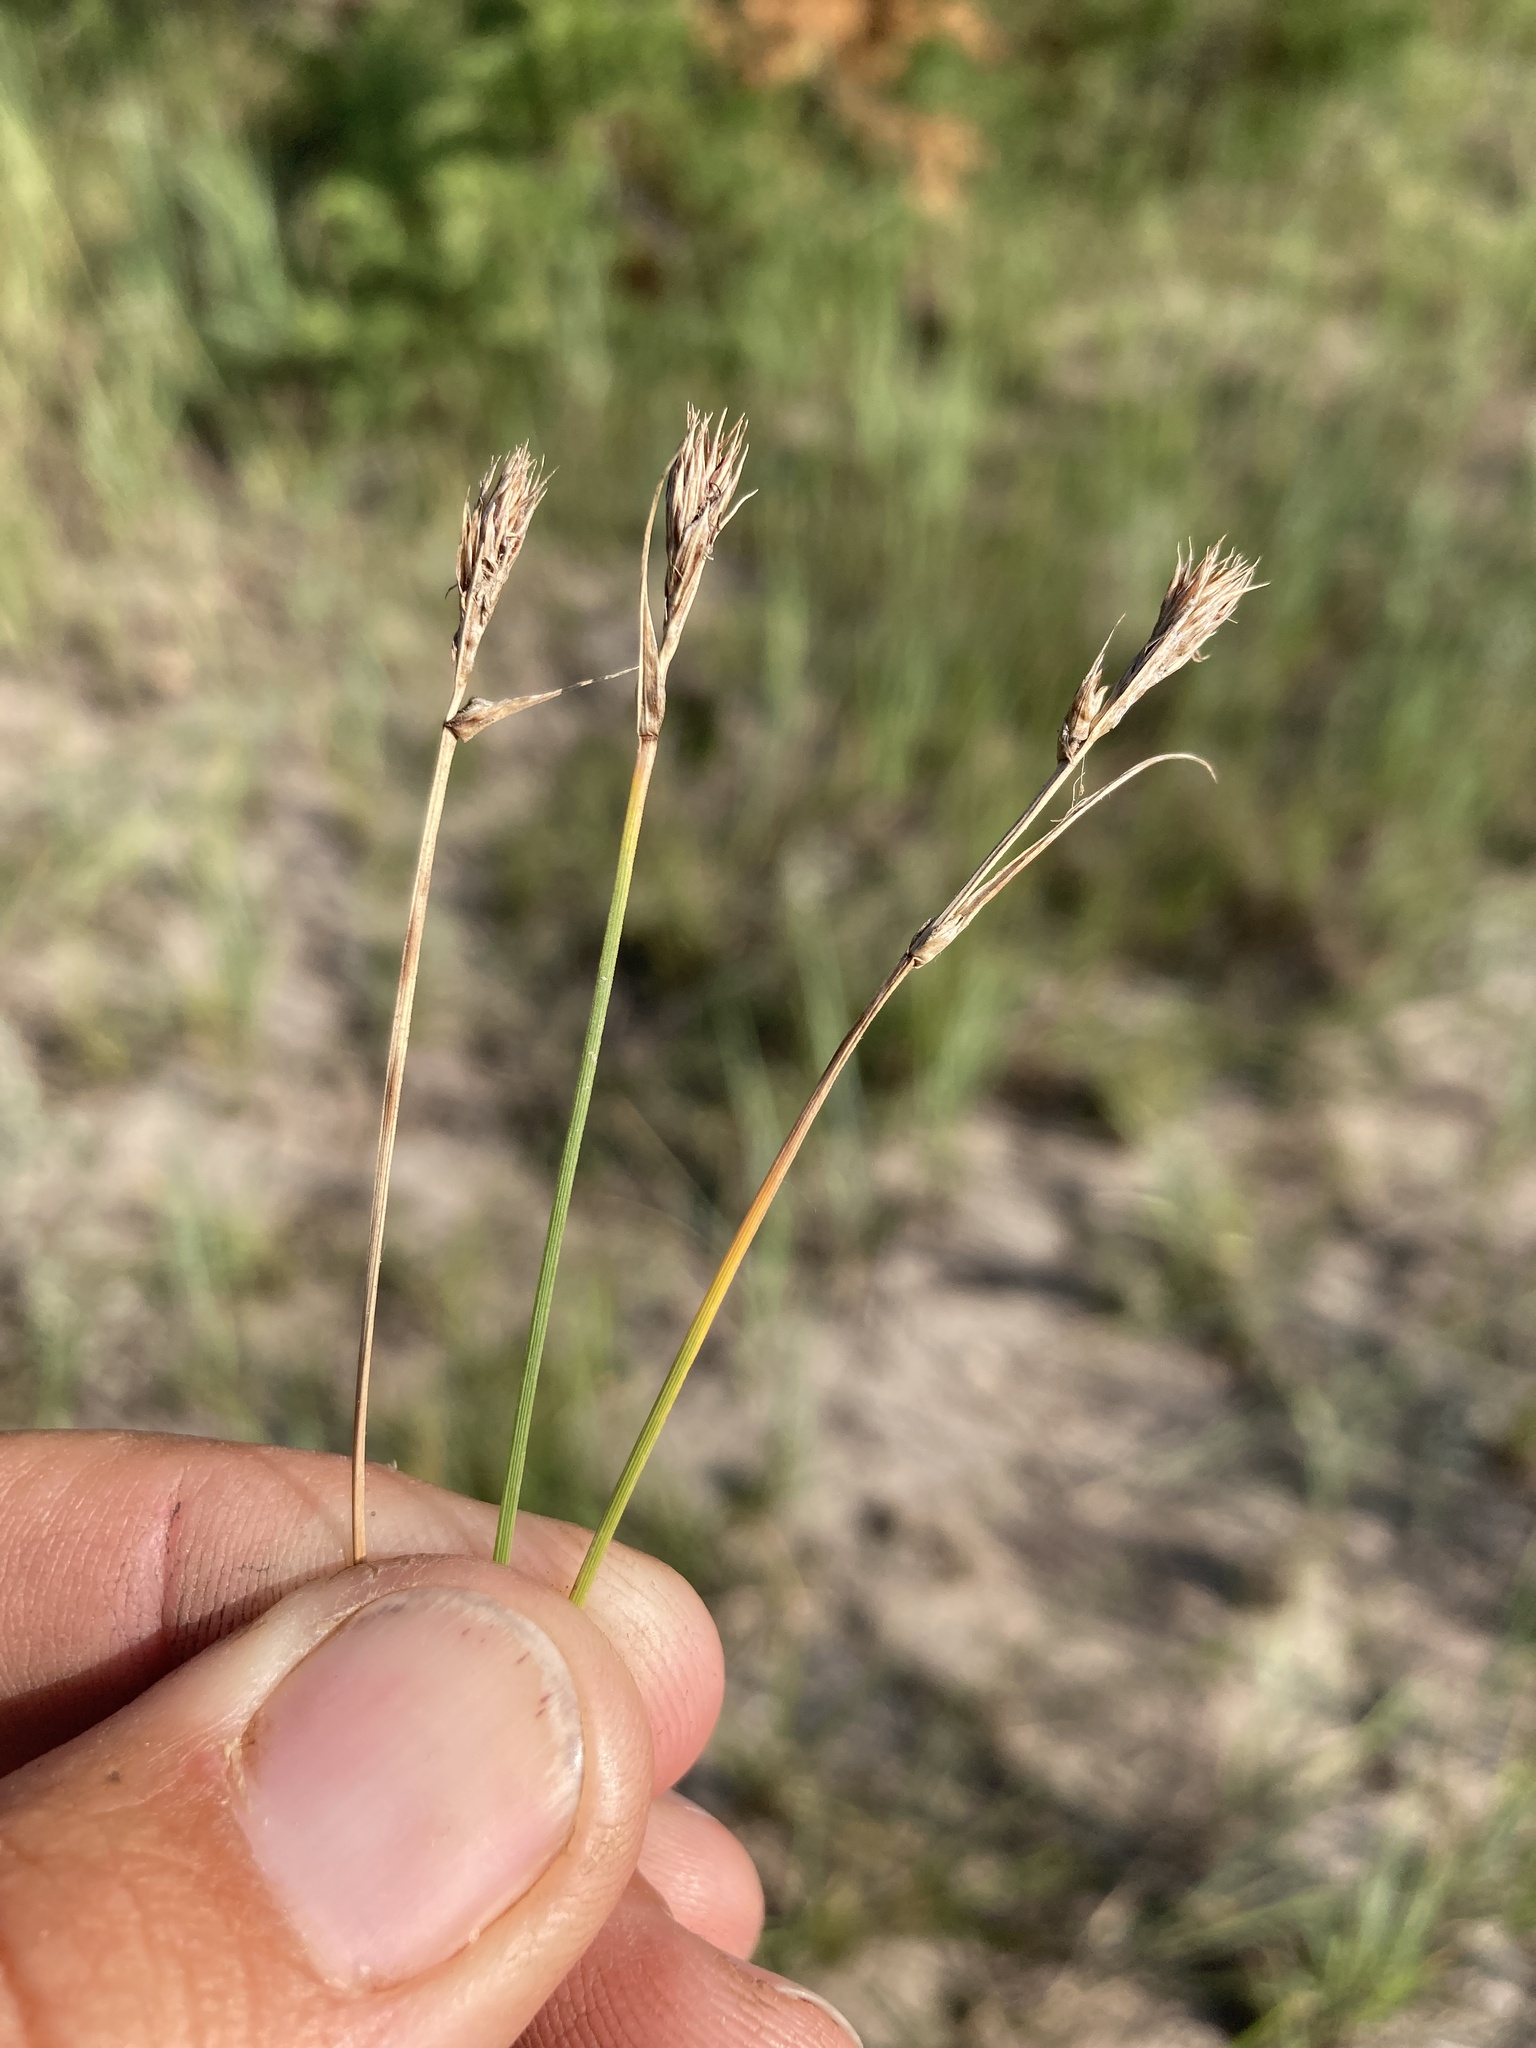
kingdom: Plantae
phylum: Tracheophyta
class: Liliopsida
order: Poales
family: Cyperaceae
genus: Carex
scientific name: Carex inops
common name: Long-stolon sedge
